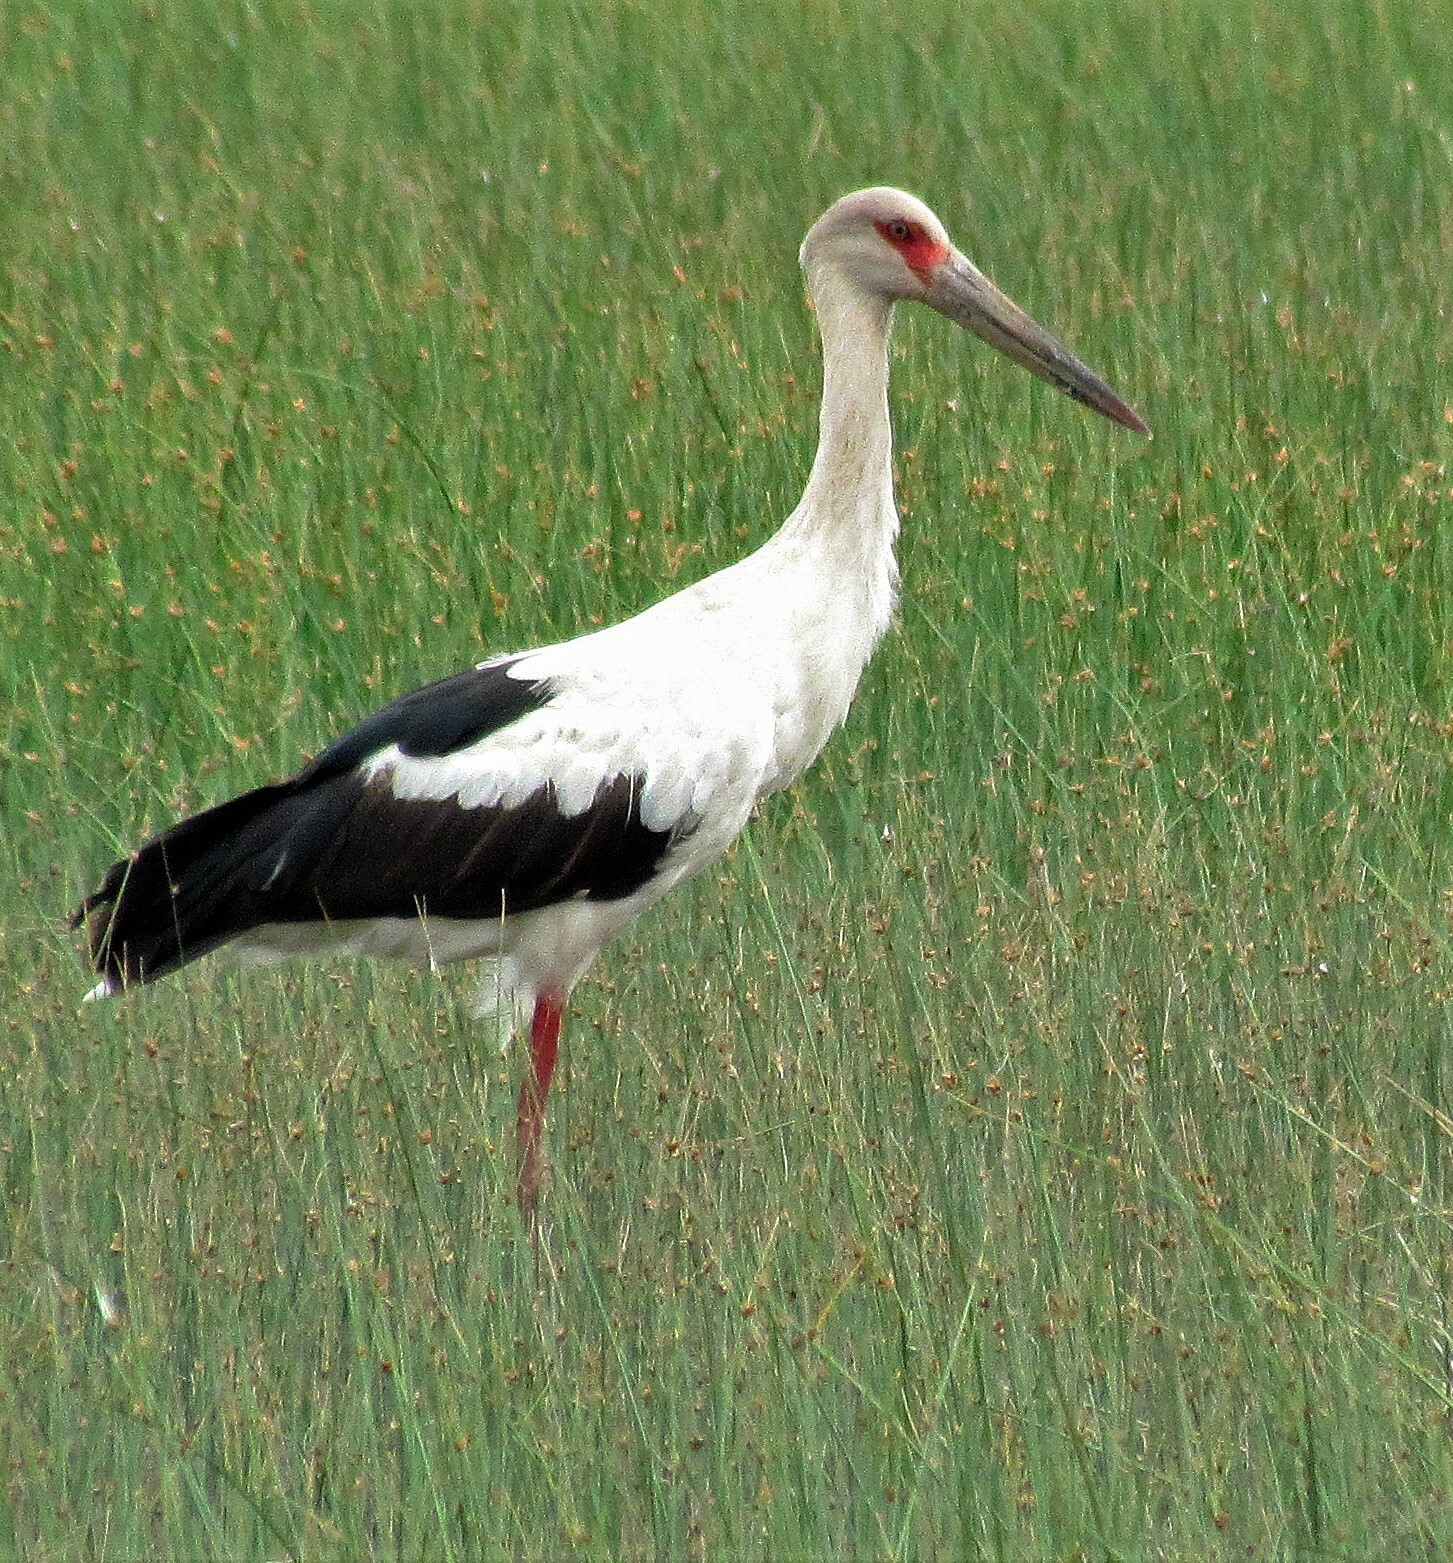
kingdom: Animalia
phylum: Chordata
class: Aves
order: Ciconiiformes
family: Ciconiidae
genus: Ciconia
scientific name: Ciconia maguari
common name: Maguari stork
